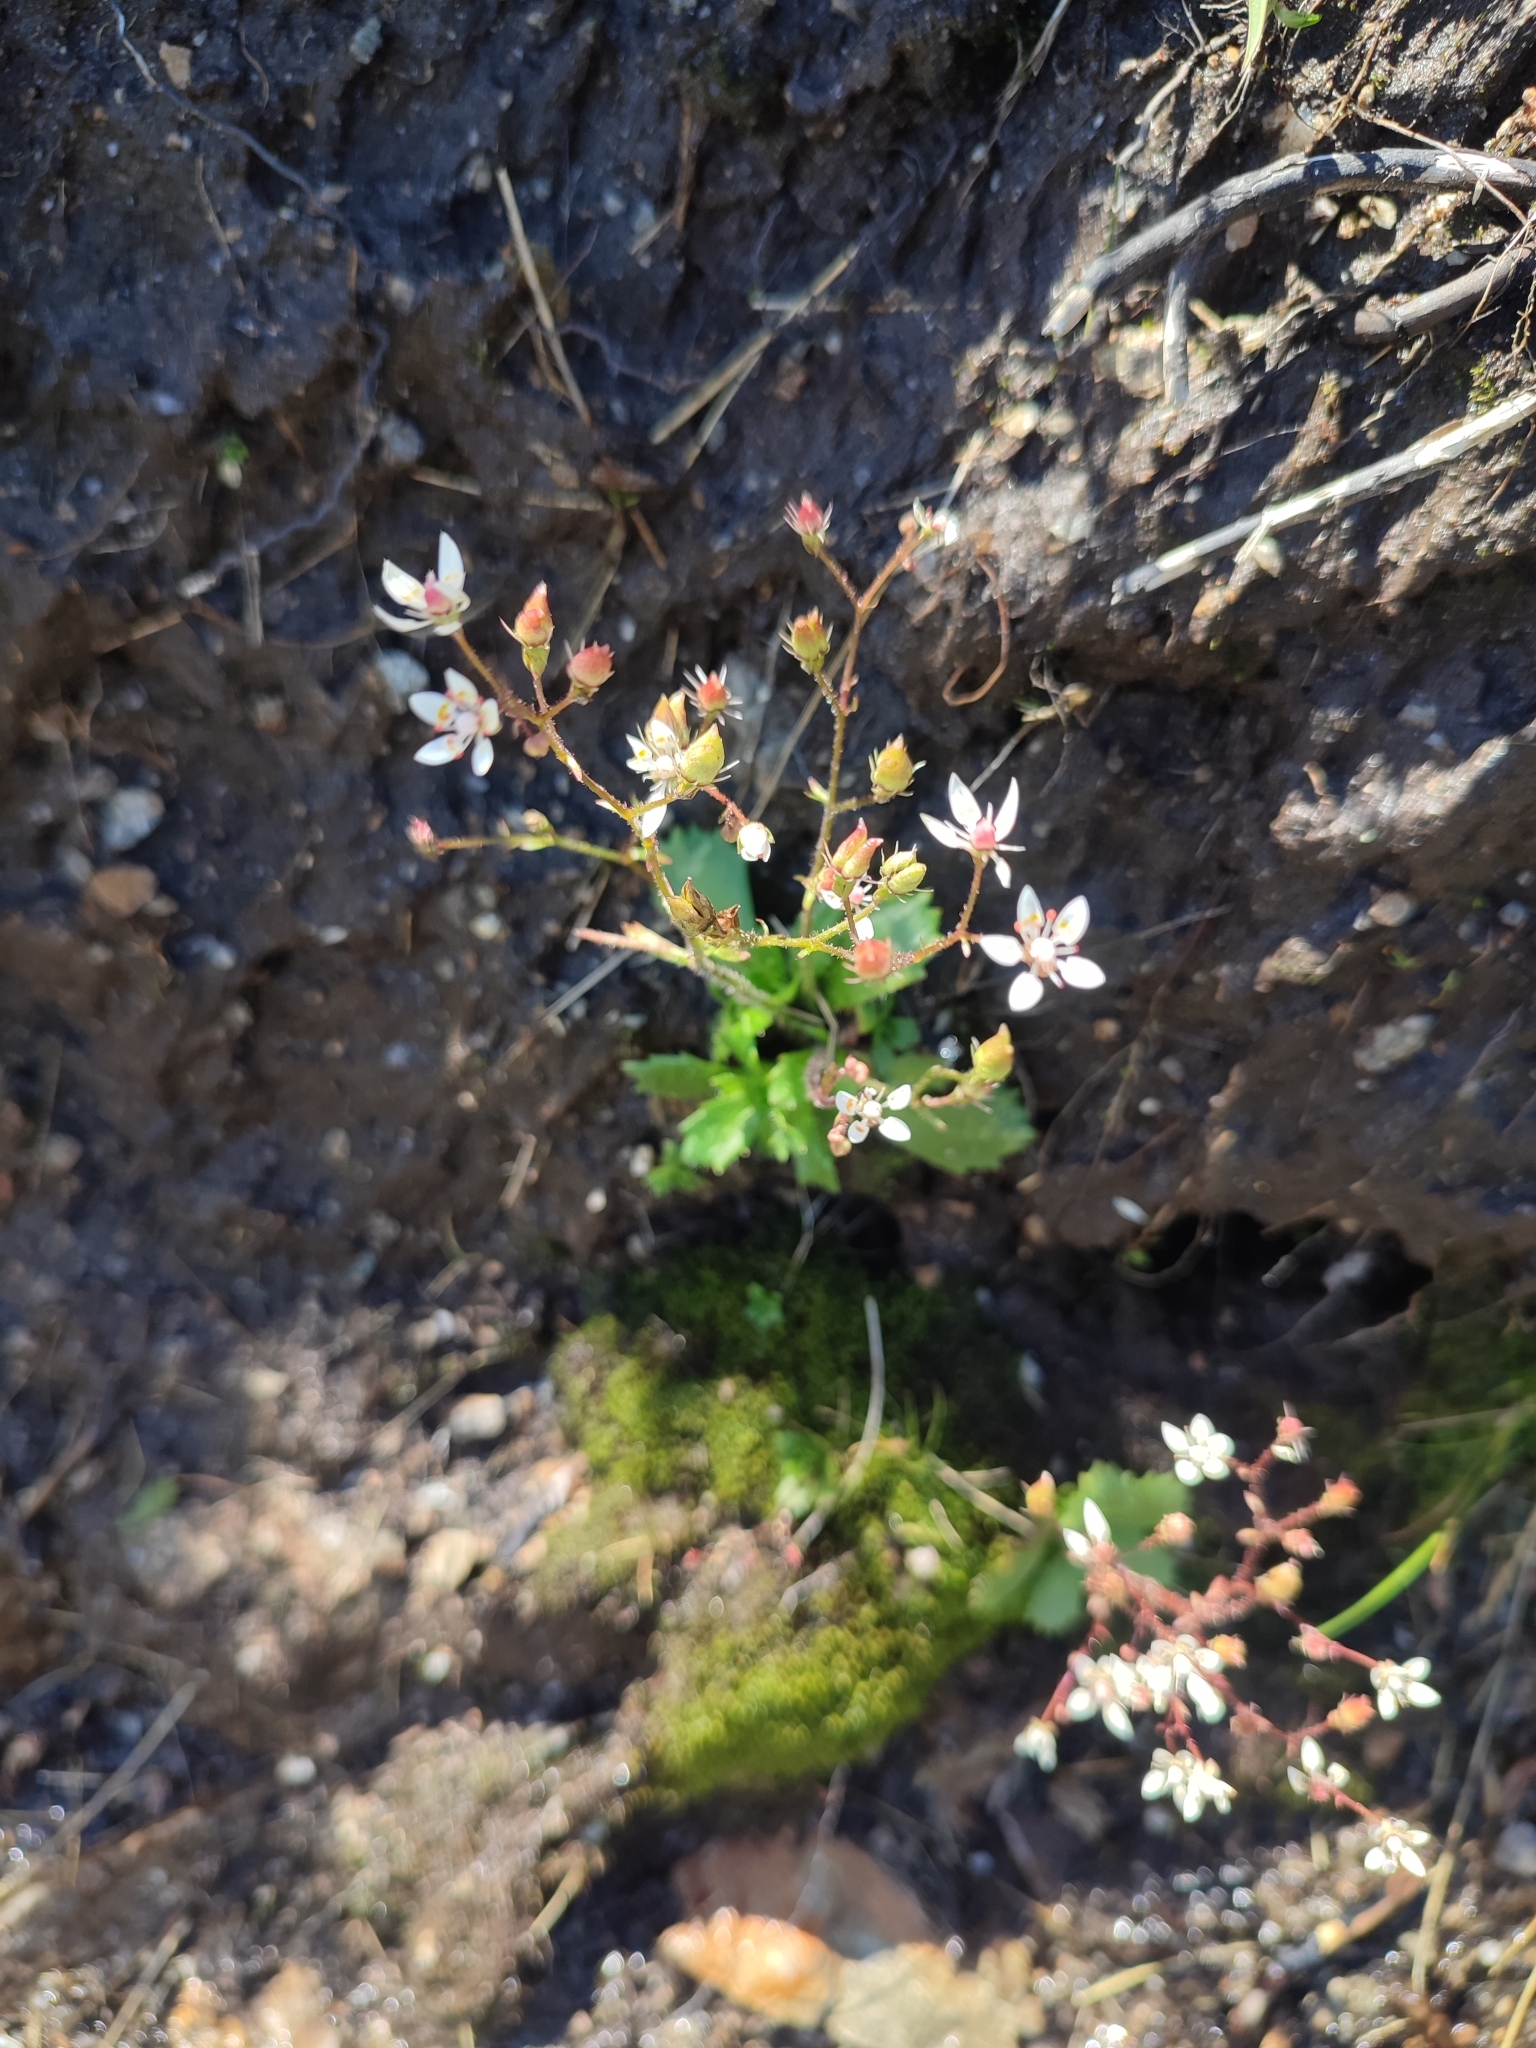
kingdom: Plantae
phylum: Tracheophyta
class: Magnoliopsida
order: Saxifragales
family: Saxifragaceae
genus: Micranthes
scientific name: Micranthes stellaris
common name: Starry saxifrage
